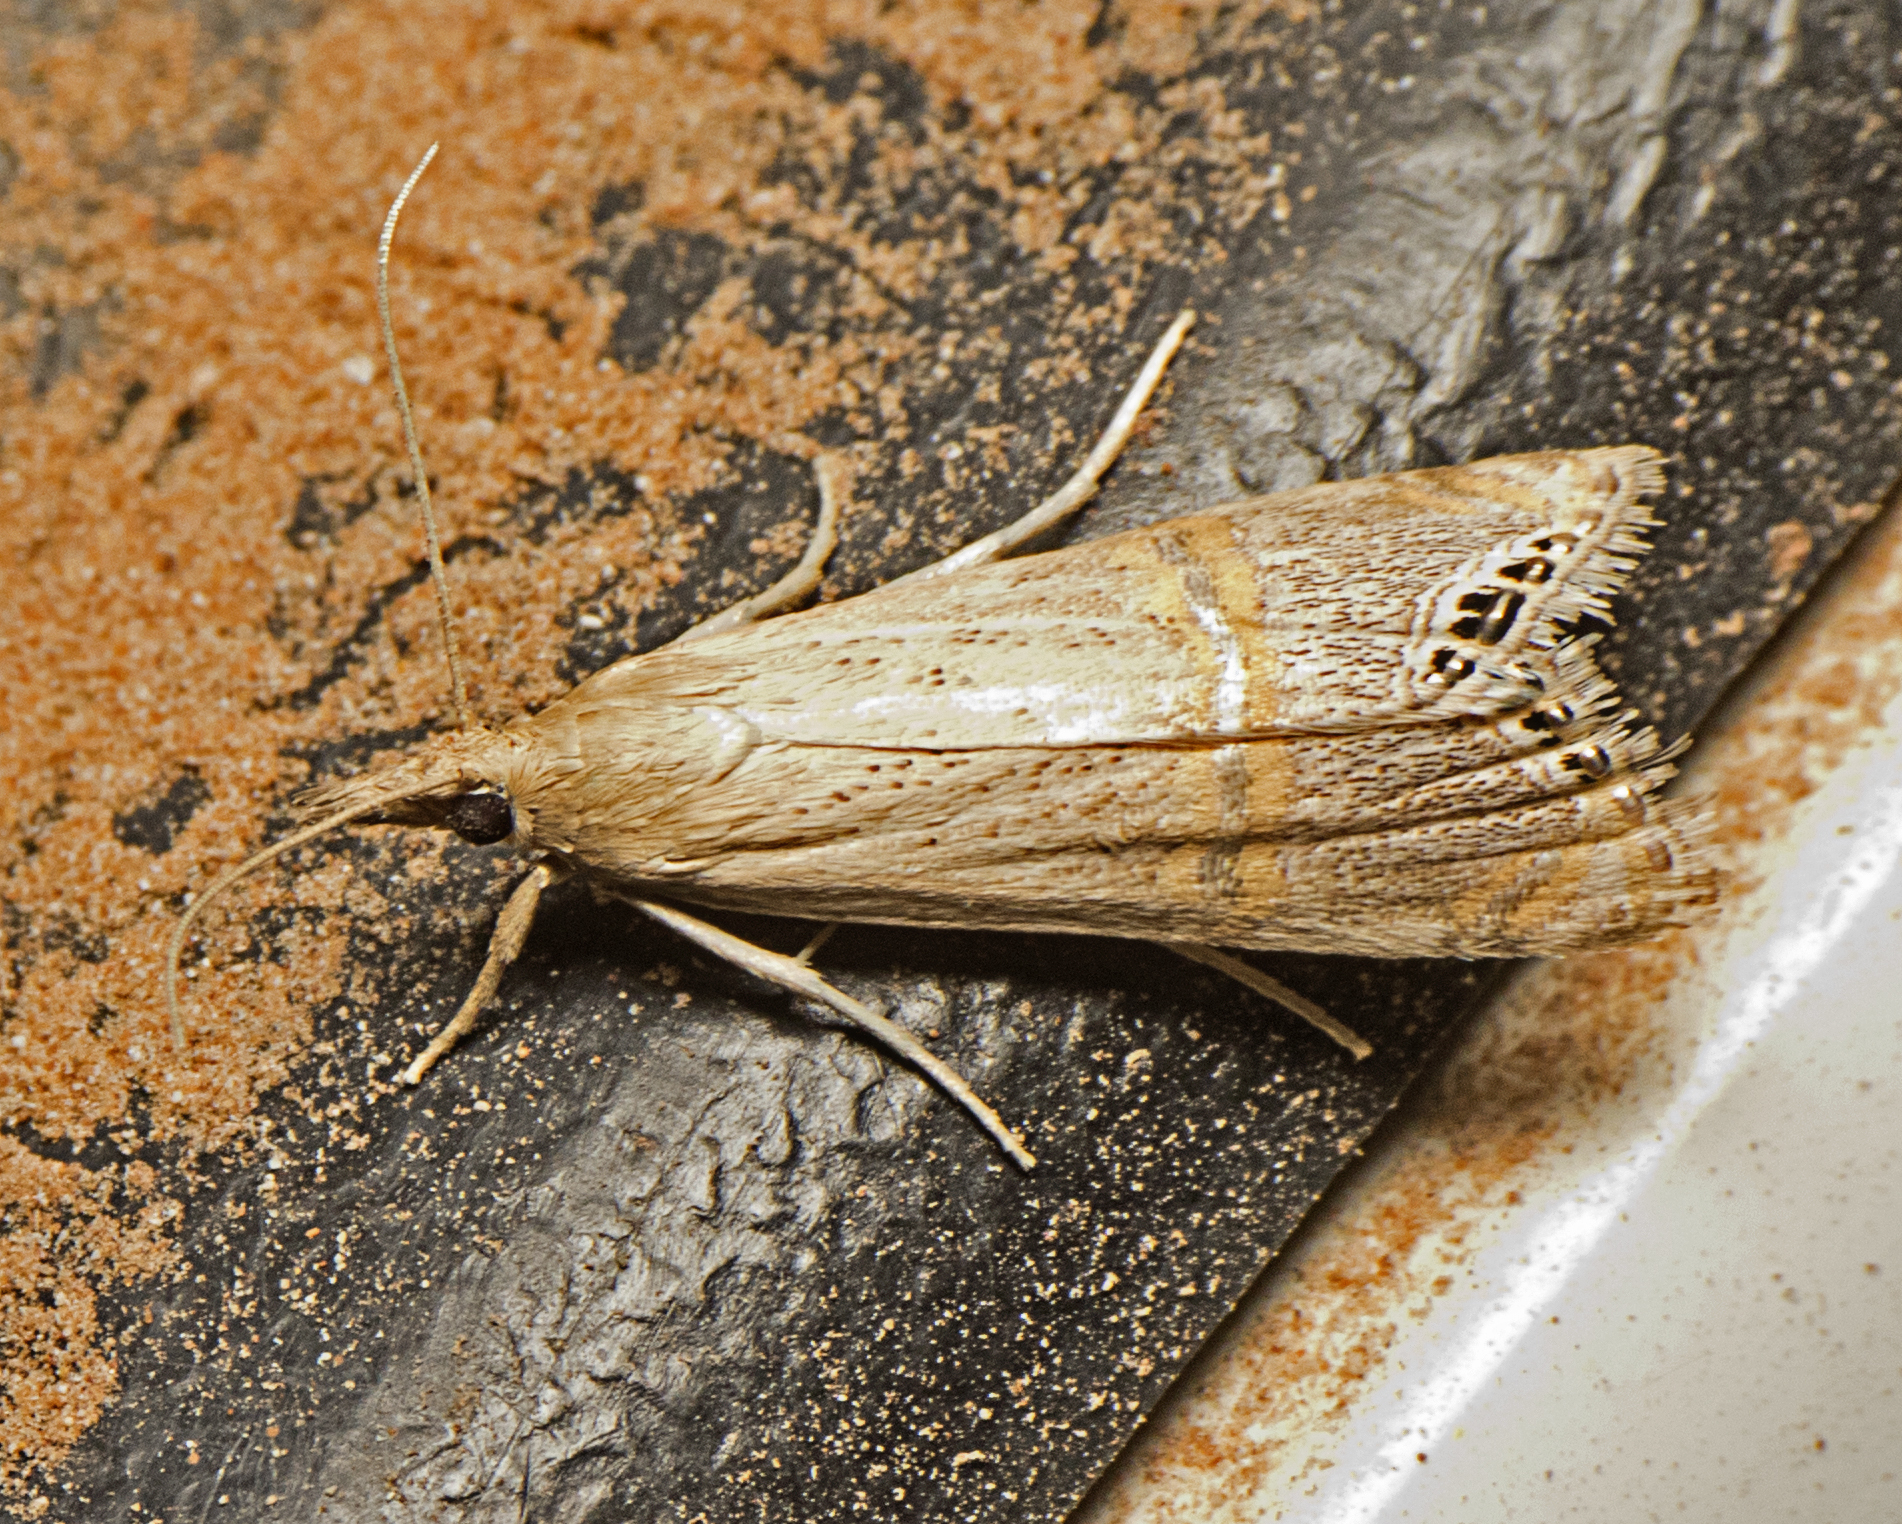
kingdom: Animalia
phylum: Arthropoda
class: Insecta
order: Lepidoptera
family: Crambidae
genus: Euchromius
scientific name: Euchromius cornus
